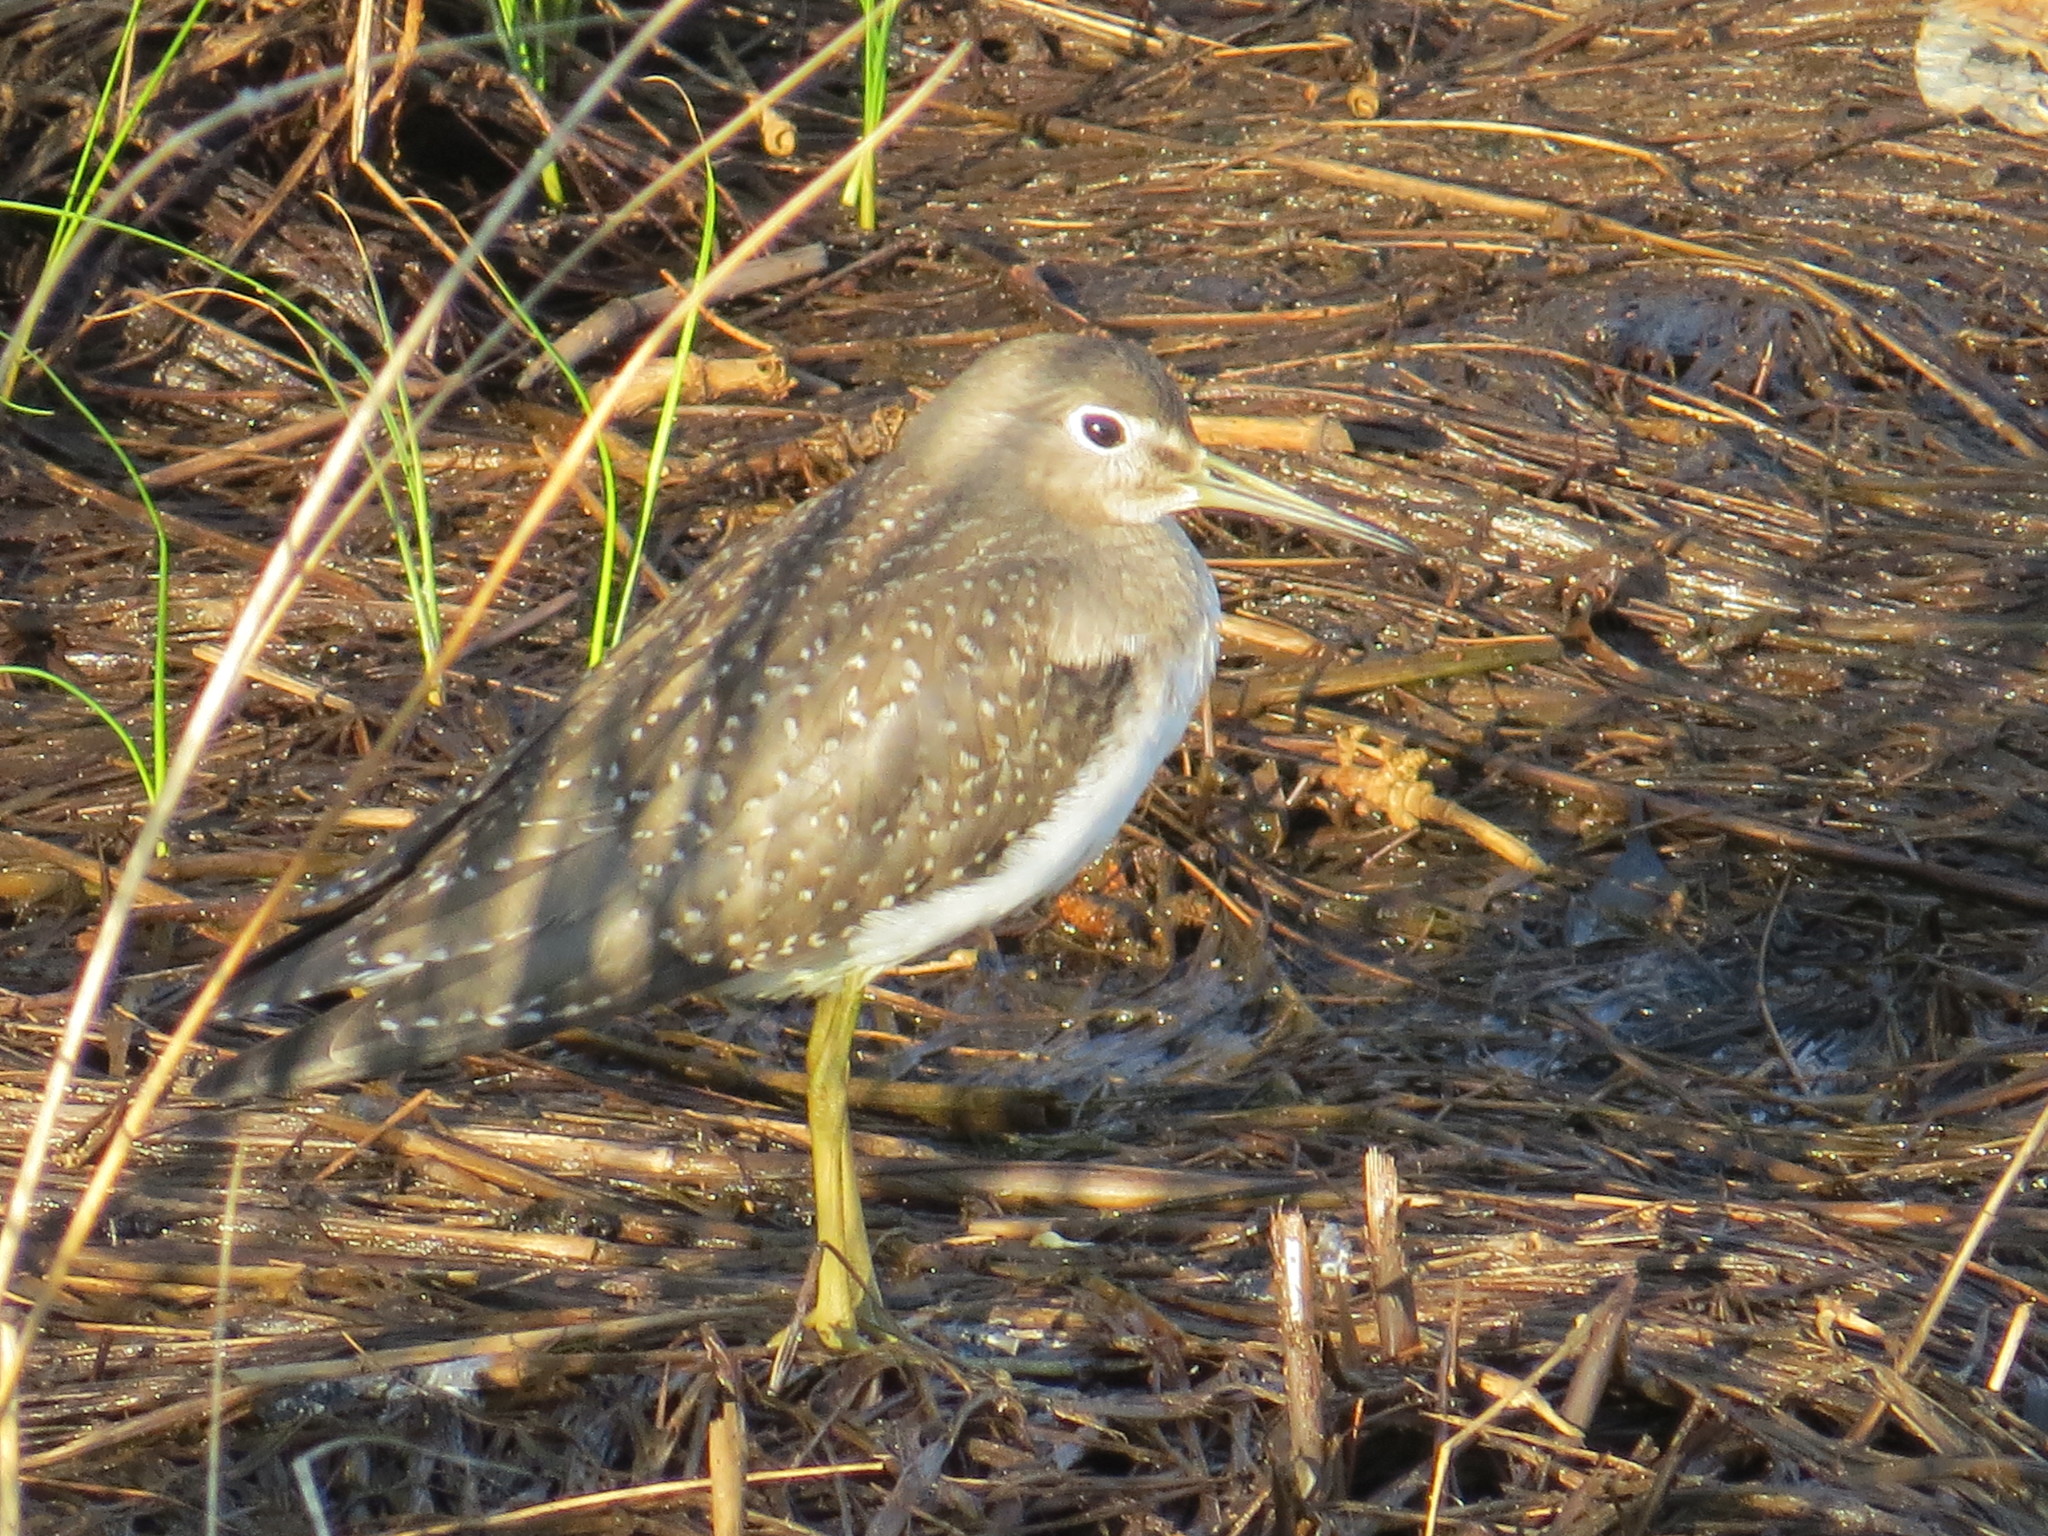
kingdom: Animalia
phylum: Chordata
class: Aves
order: Charadriiformes
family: Scolopacidae
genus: Tringa
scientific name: Tringa solitaria
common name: Solitary sandpiper
